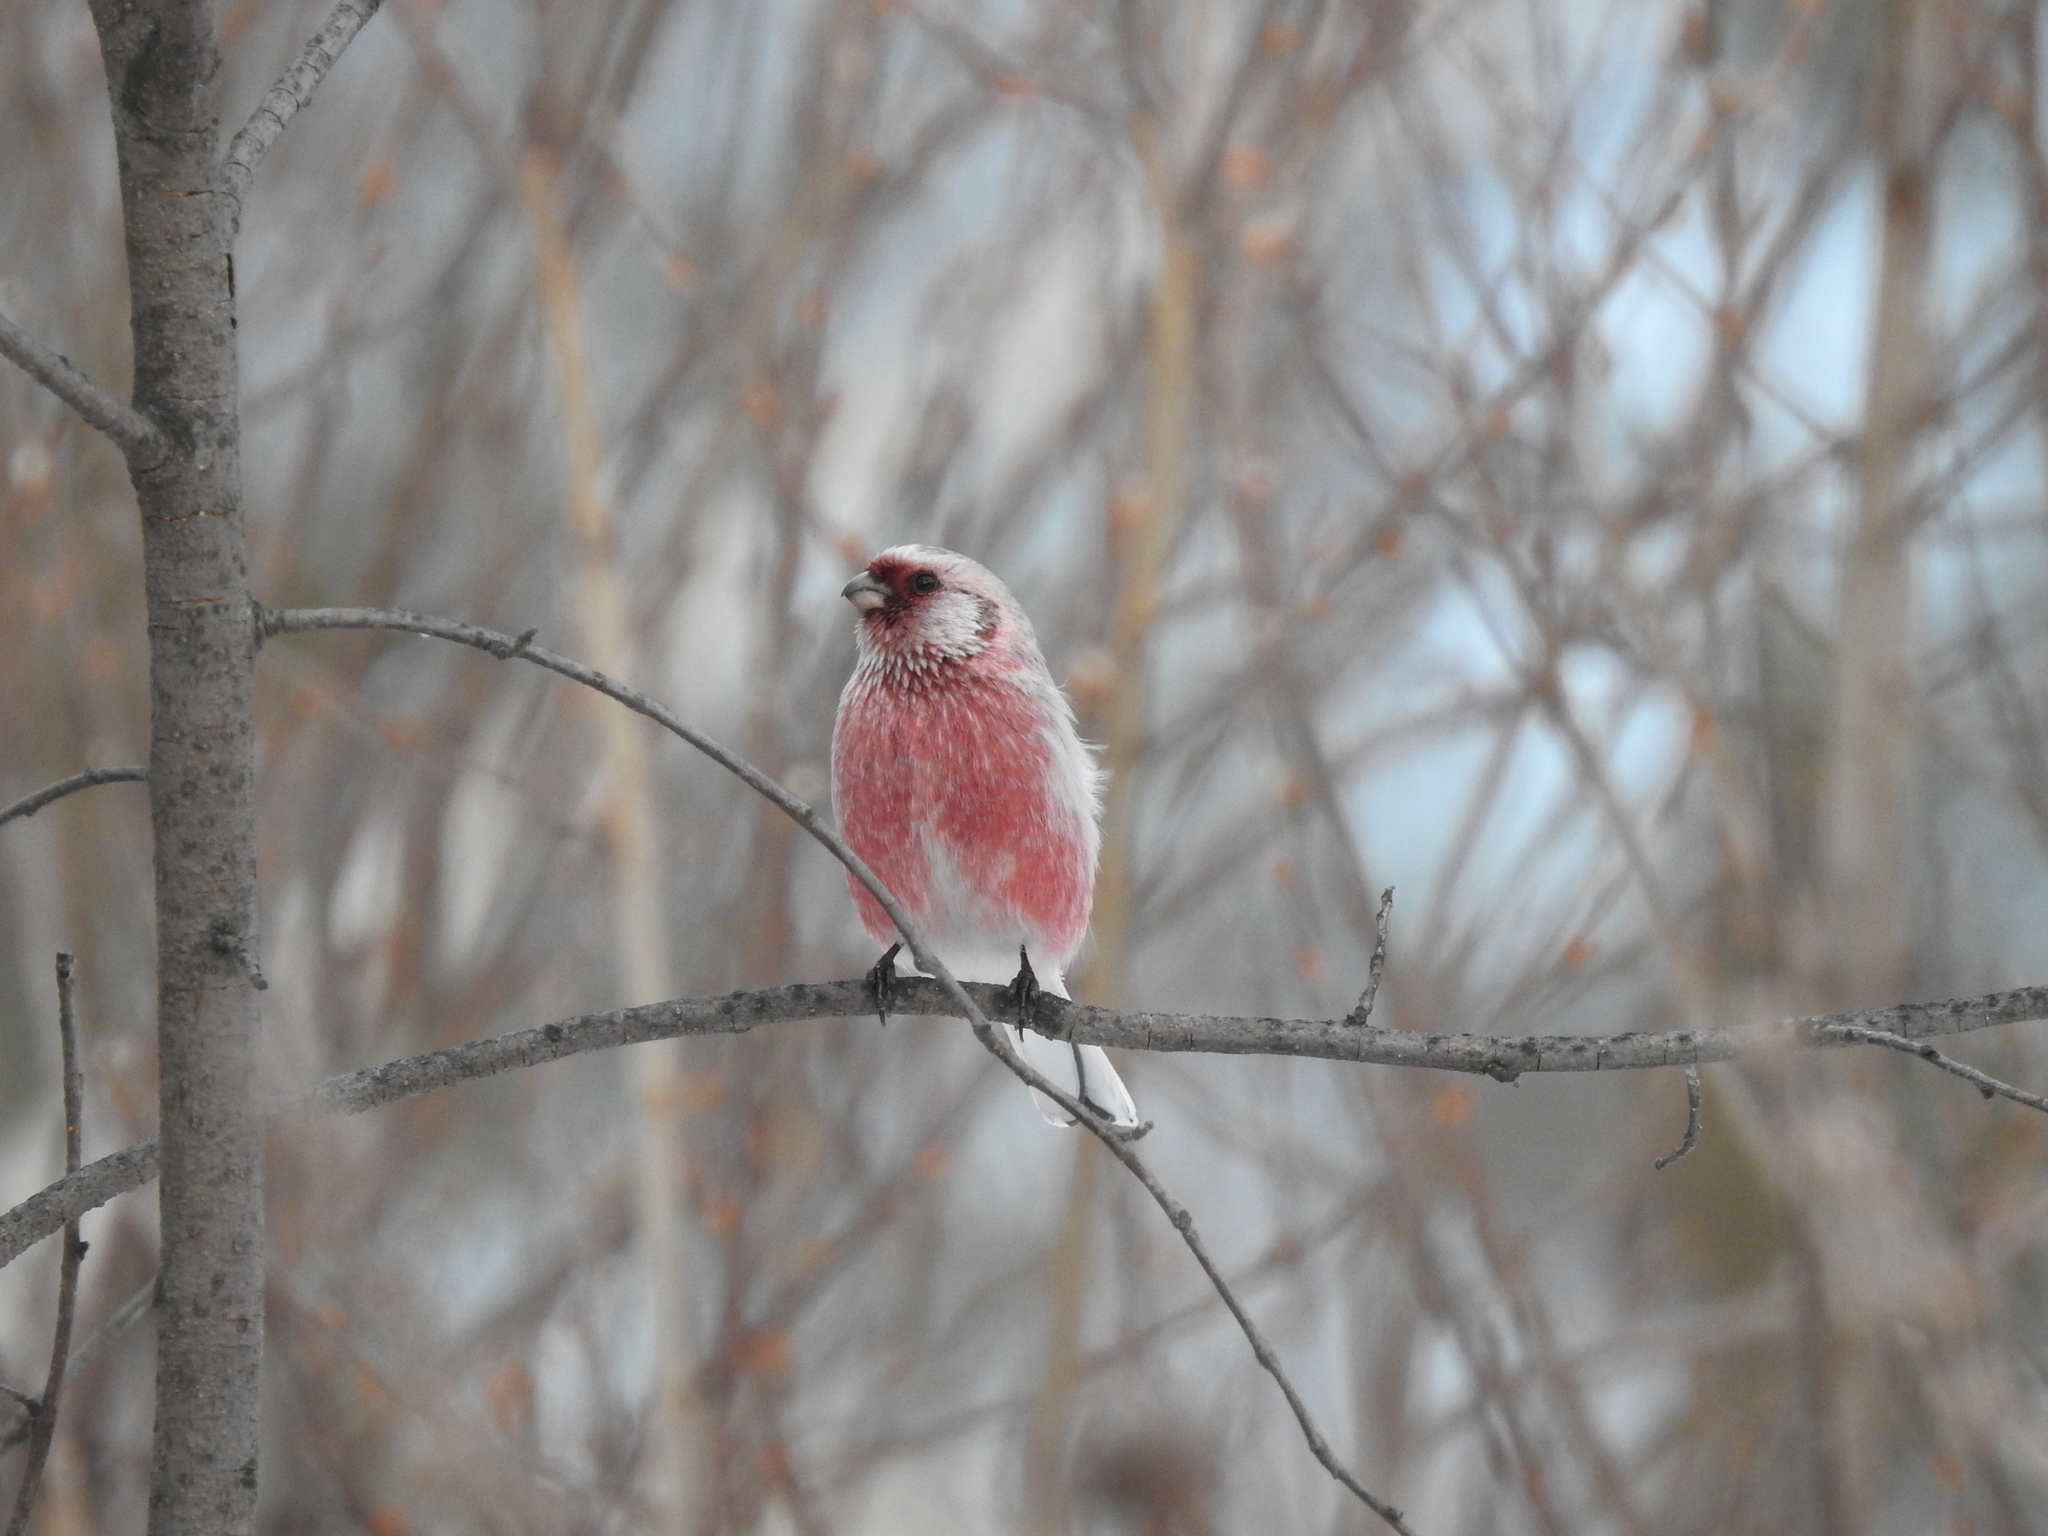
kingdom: Animalia
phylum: Chordata
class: Aves
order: Passeriformes
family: Fringillidae
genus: Carpodacus
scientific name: Carpodacus sibiricus
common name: Long-tailed rosefinch
